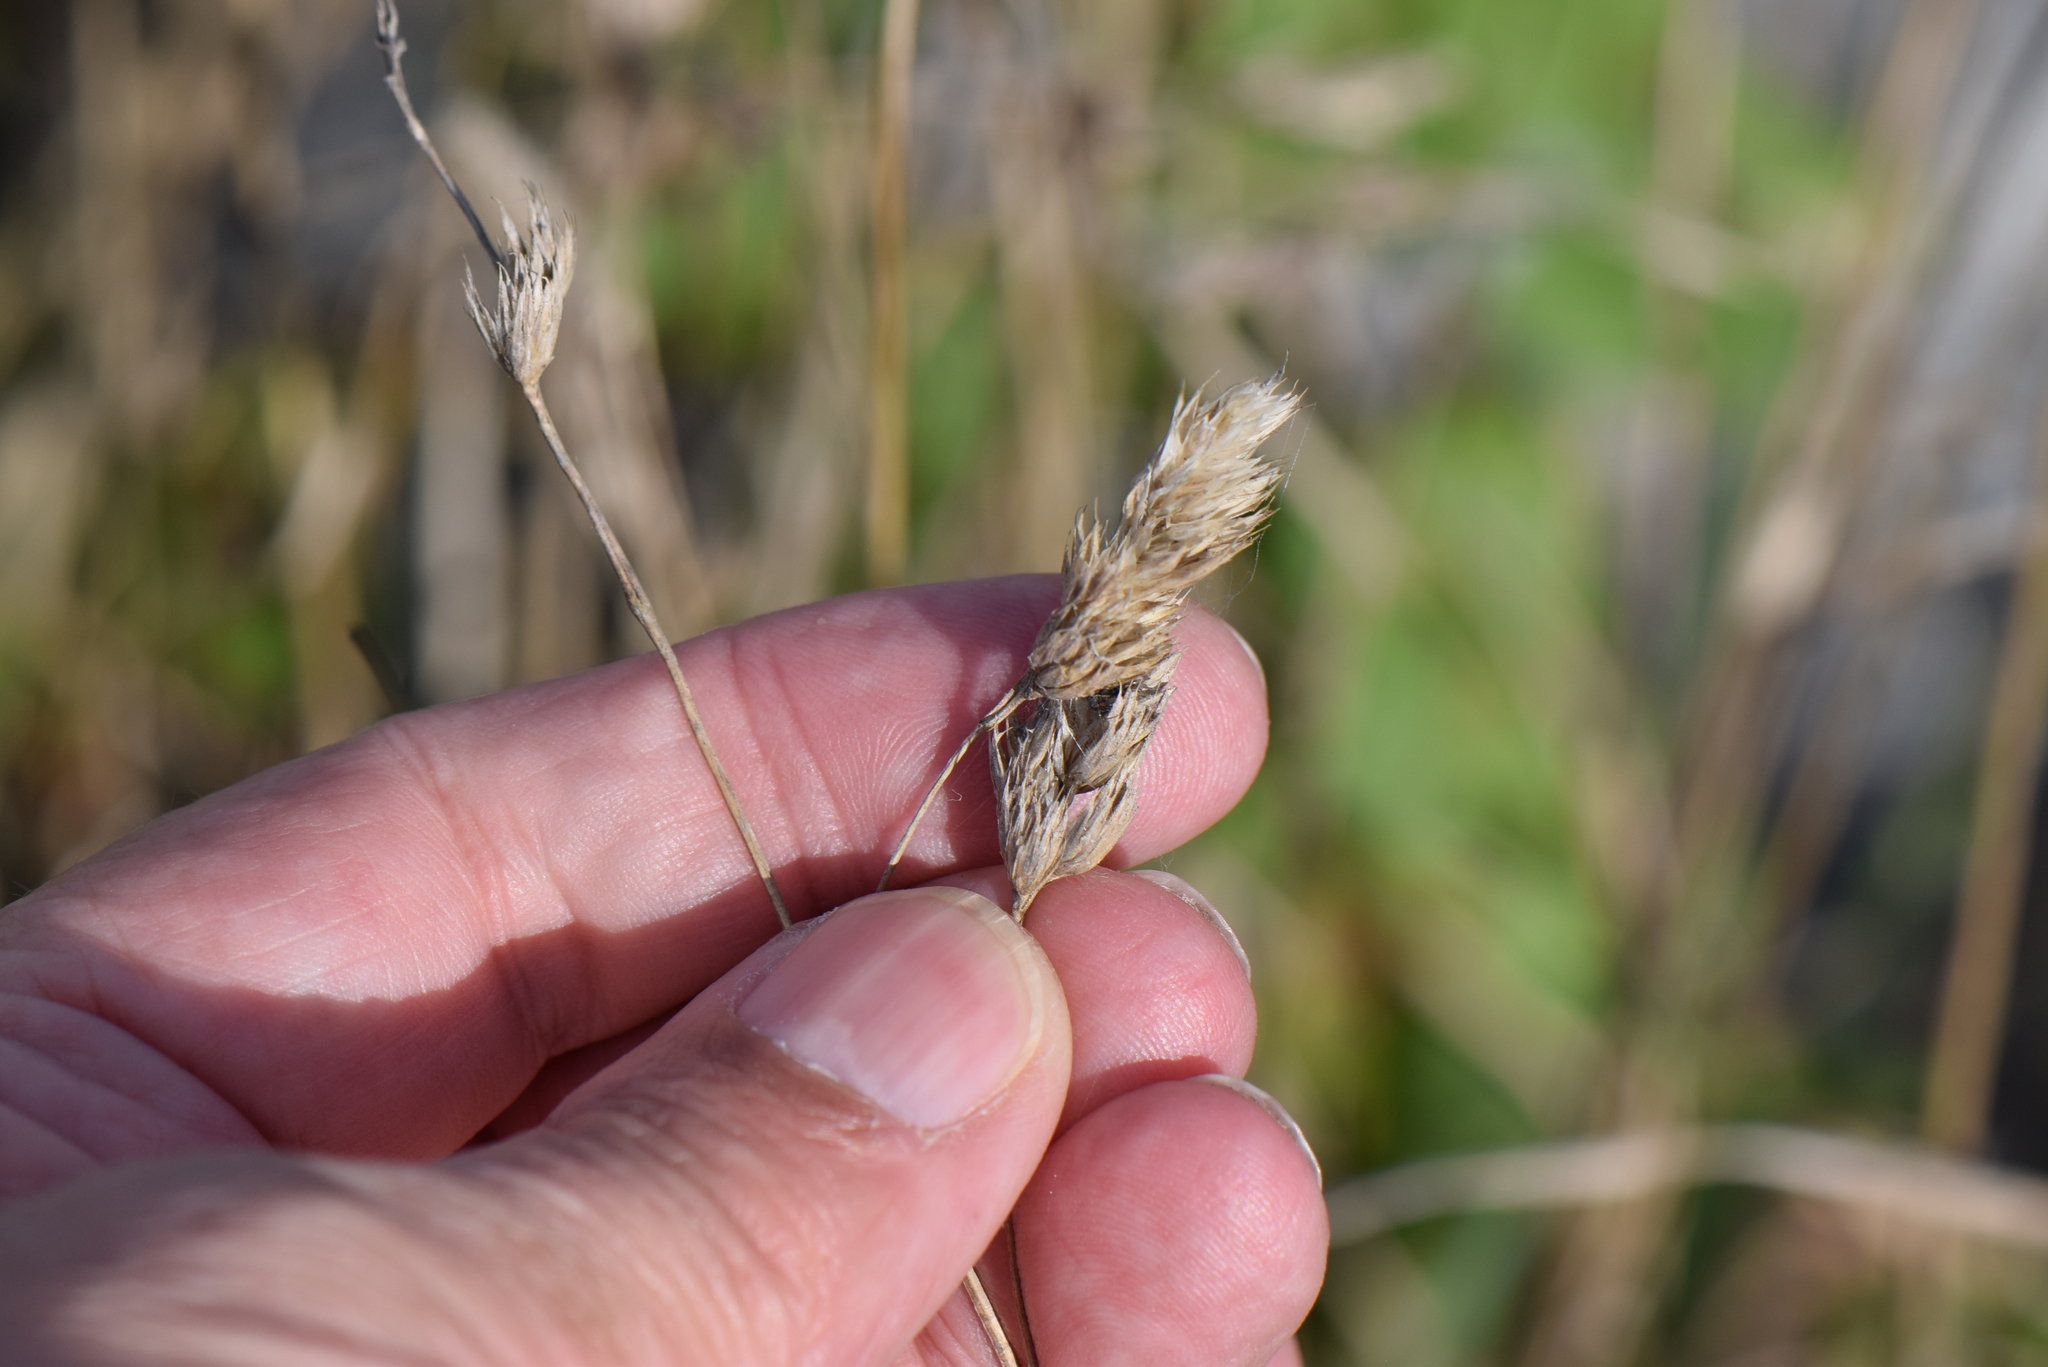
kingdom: Plantae
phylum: Tracheophyta
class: Liliopsida
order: Poales
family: Poaceae
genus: Dactylis
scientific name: Dactylis glomerata
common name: Orchardgrass
